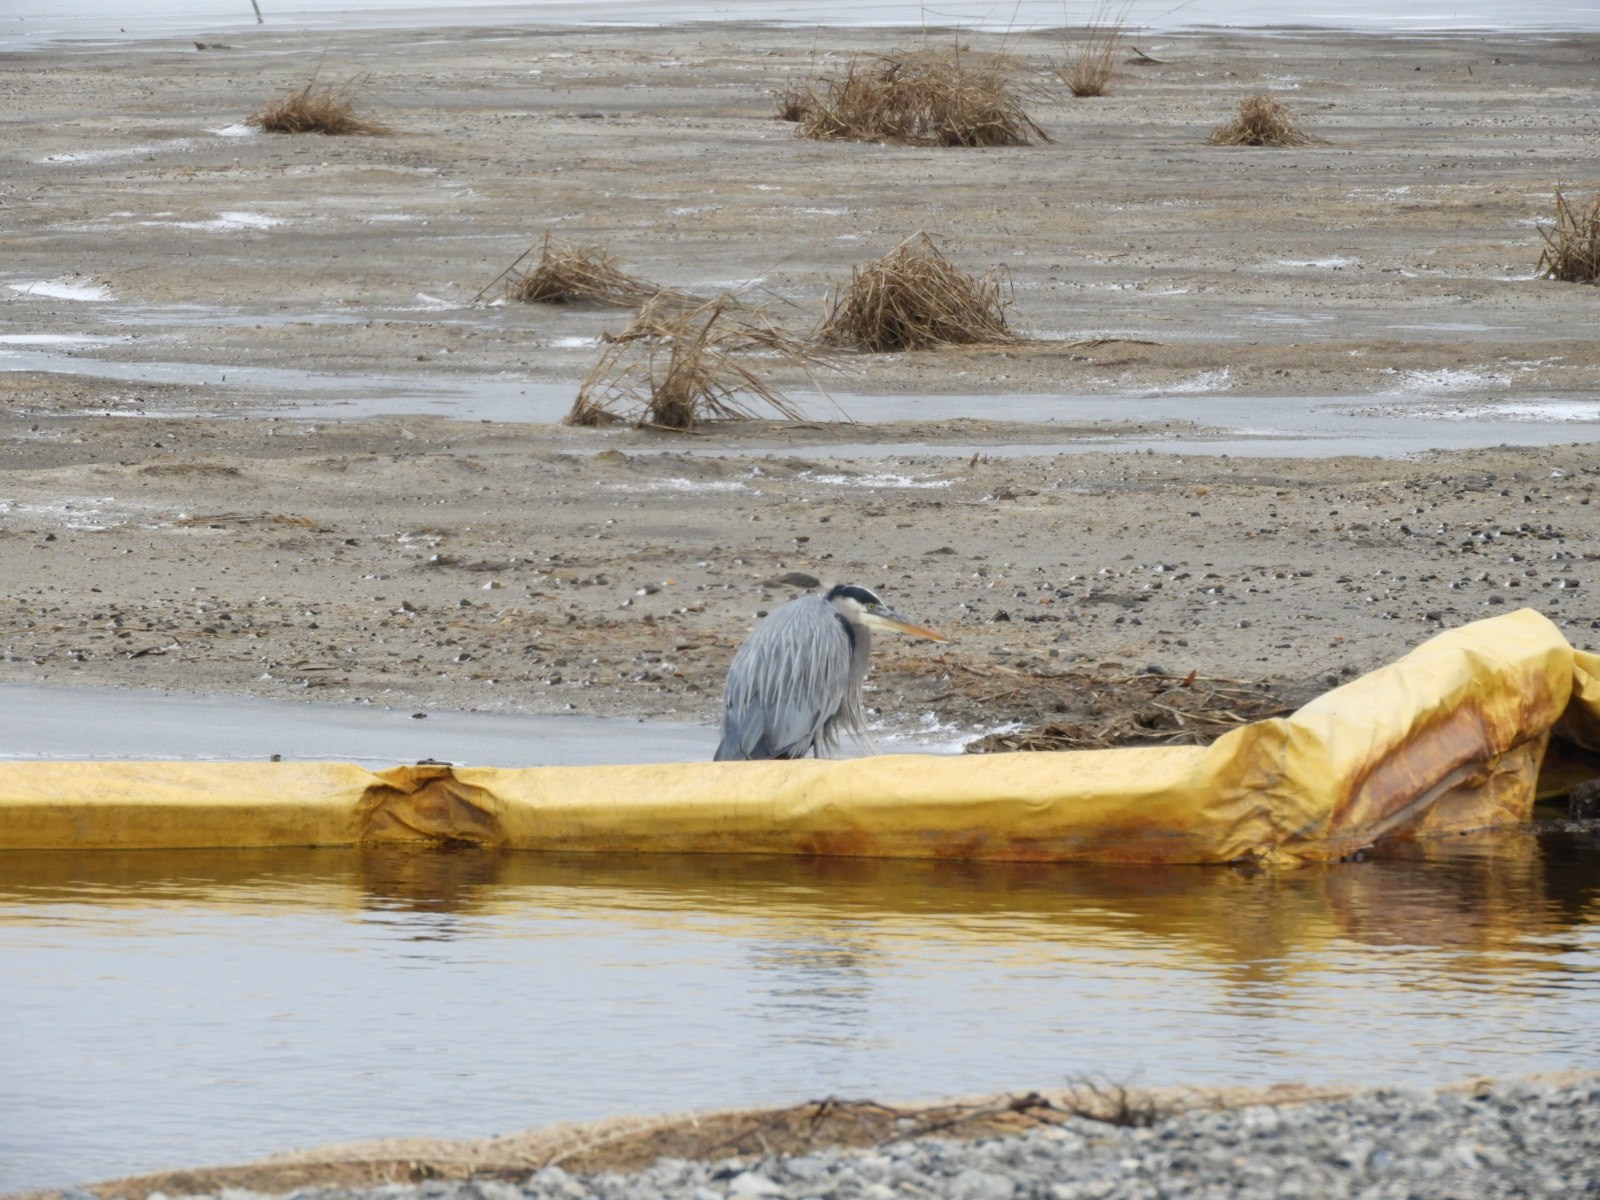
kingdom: Animalia
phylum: Chordata
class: Aves
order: Pelecaniformes
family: Ardeidae
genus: Ardea
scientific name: Ardea herodias
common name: Great blue heron
